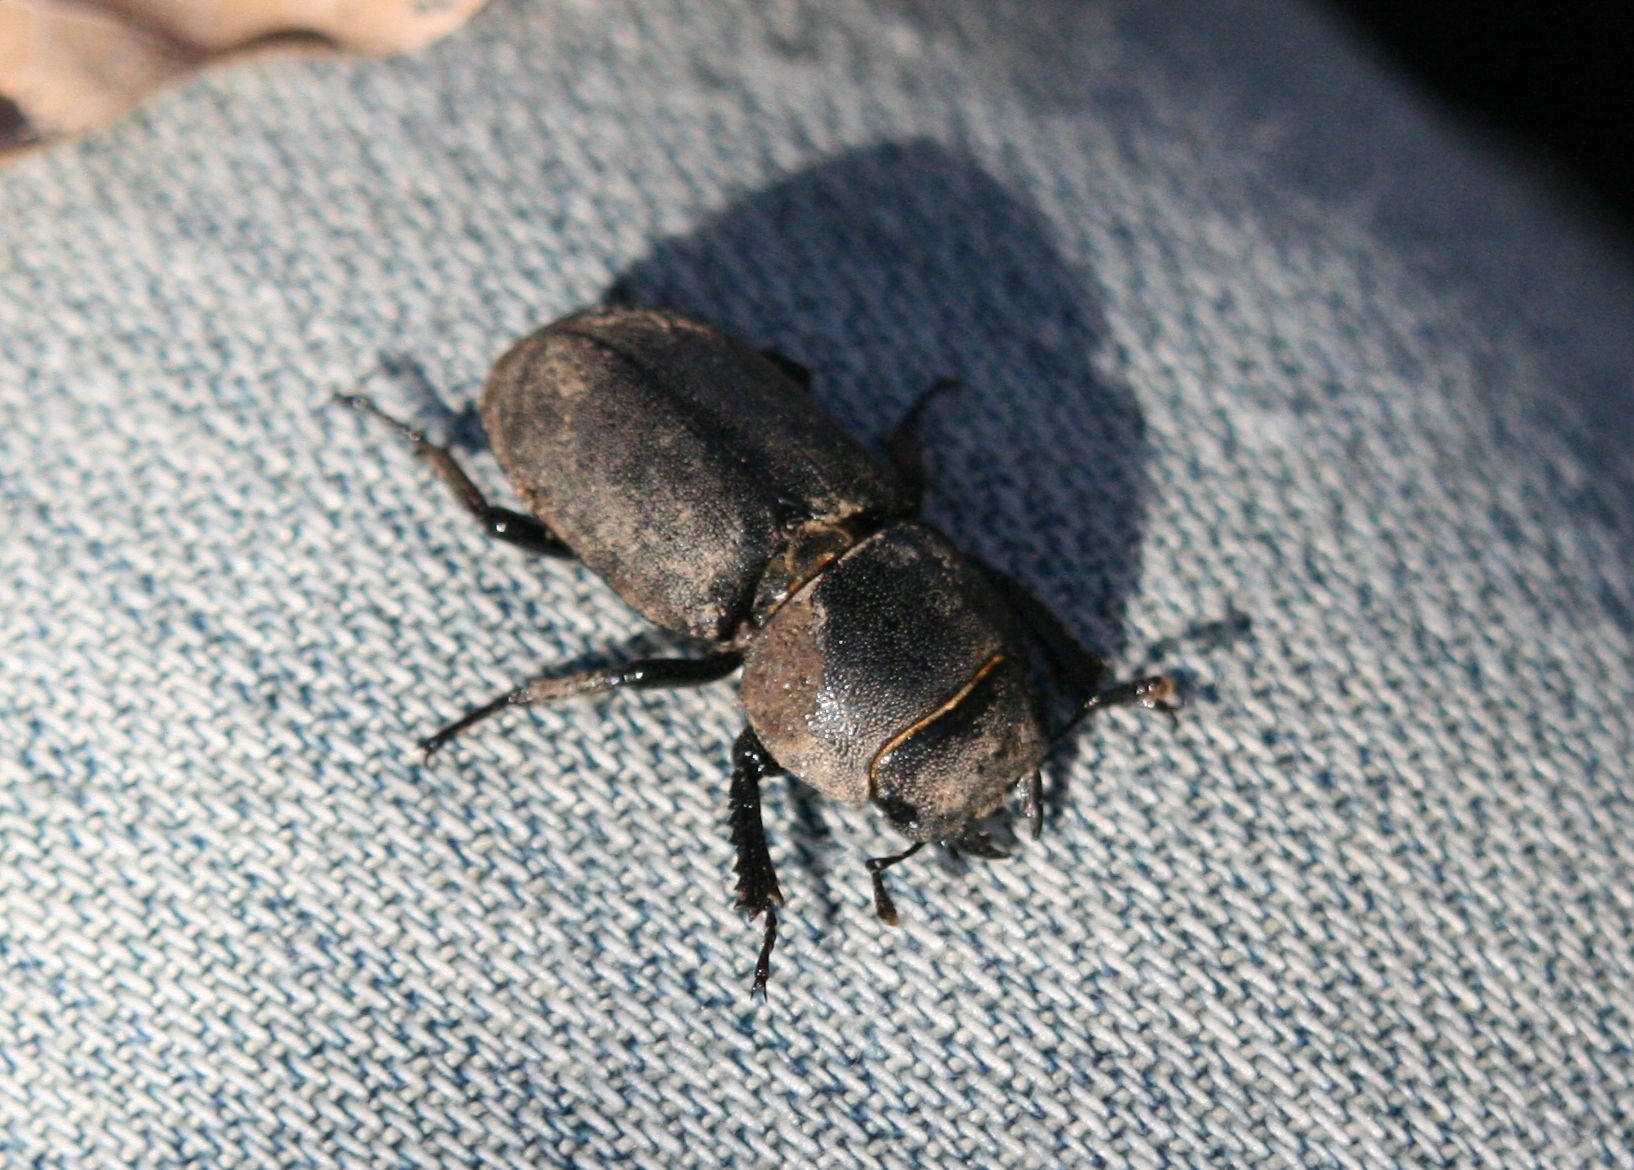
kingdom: Animalia
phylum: Arthropoda
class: Insecta
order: Coleoptera
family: Lucanidae
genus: Dorcus
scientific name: Dorcus parallelipipedus
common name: Lesser stag beetle
